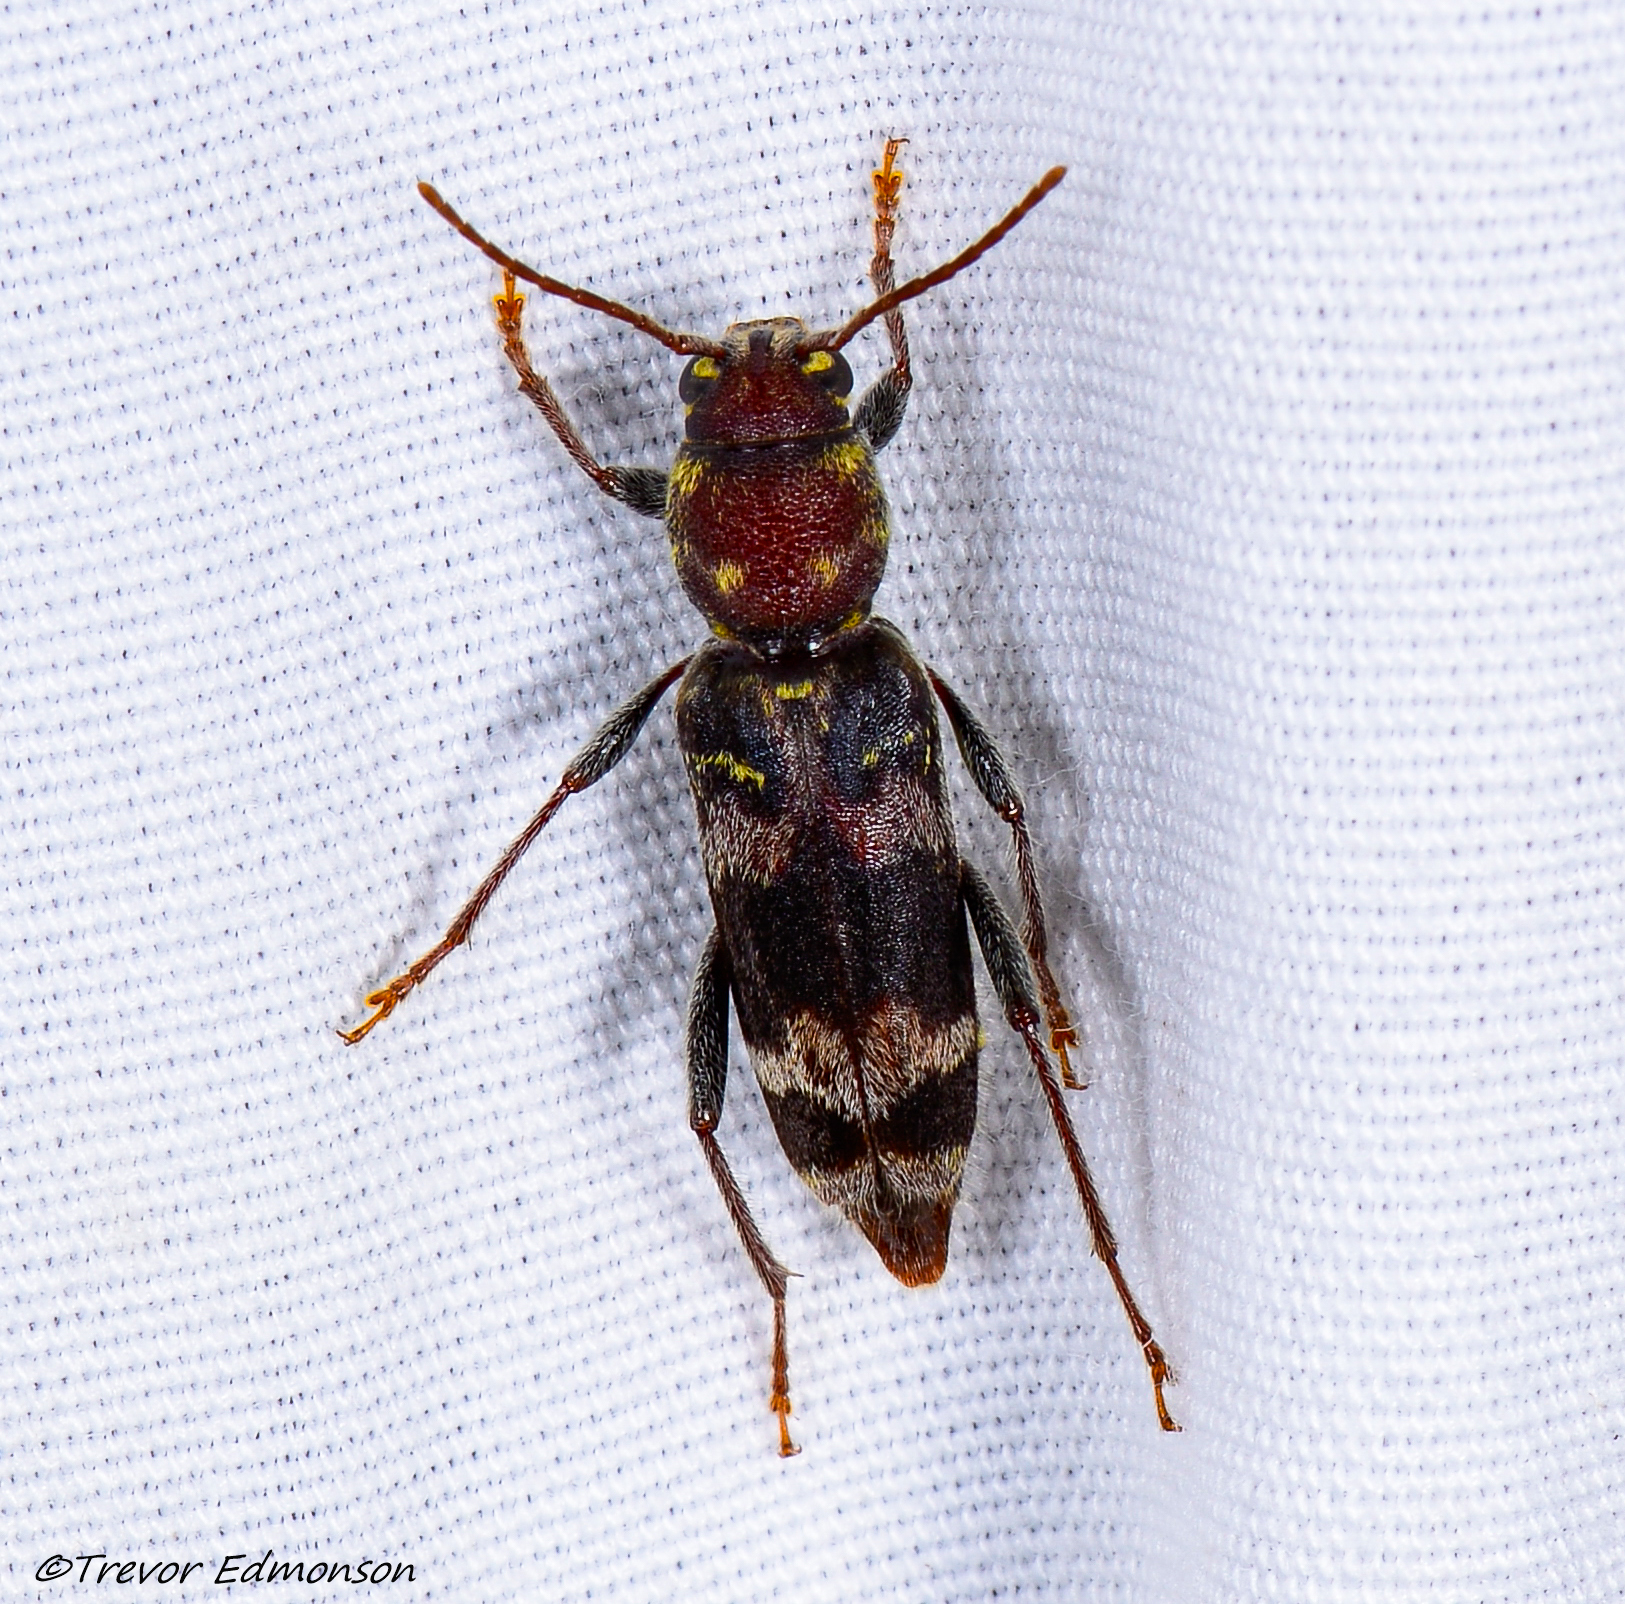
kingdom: Animalia
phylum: Arthropoda
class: Insecta
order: Coleoptera
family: Cerambycidae
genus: Xylotrechus
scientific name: Xylotrechus colonus
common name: Long-horned beetle
